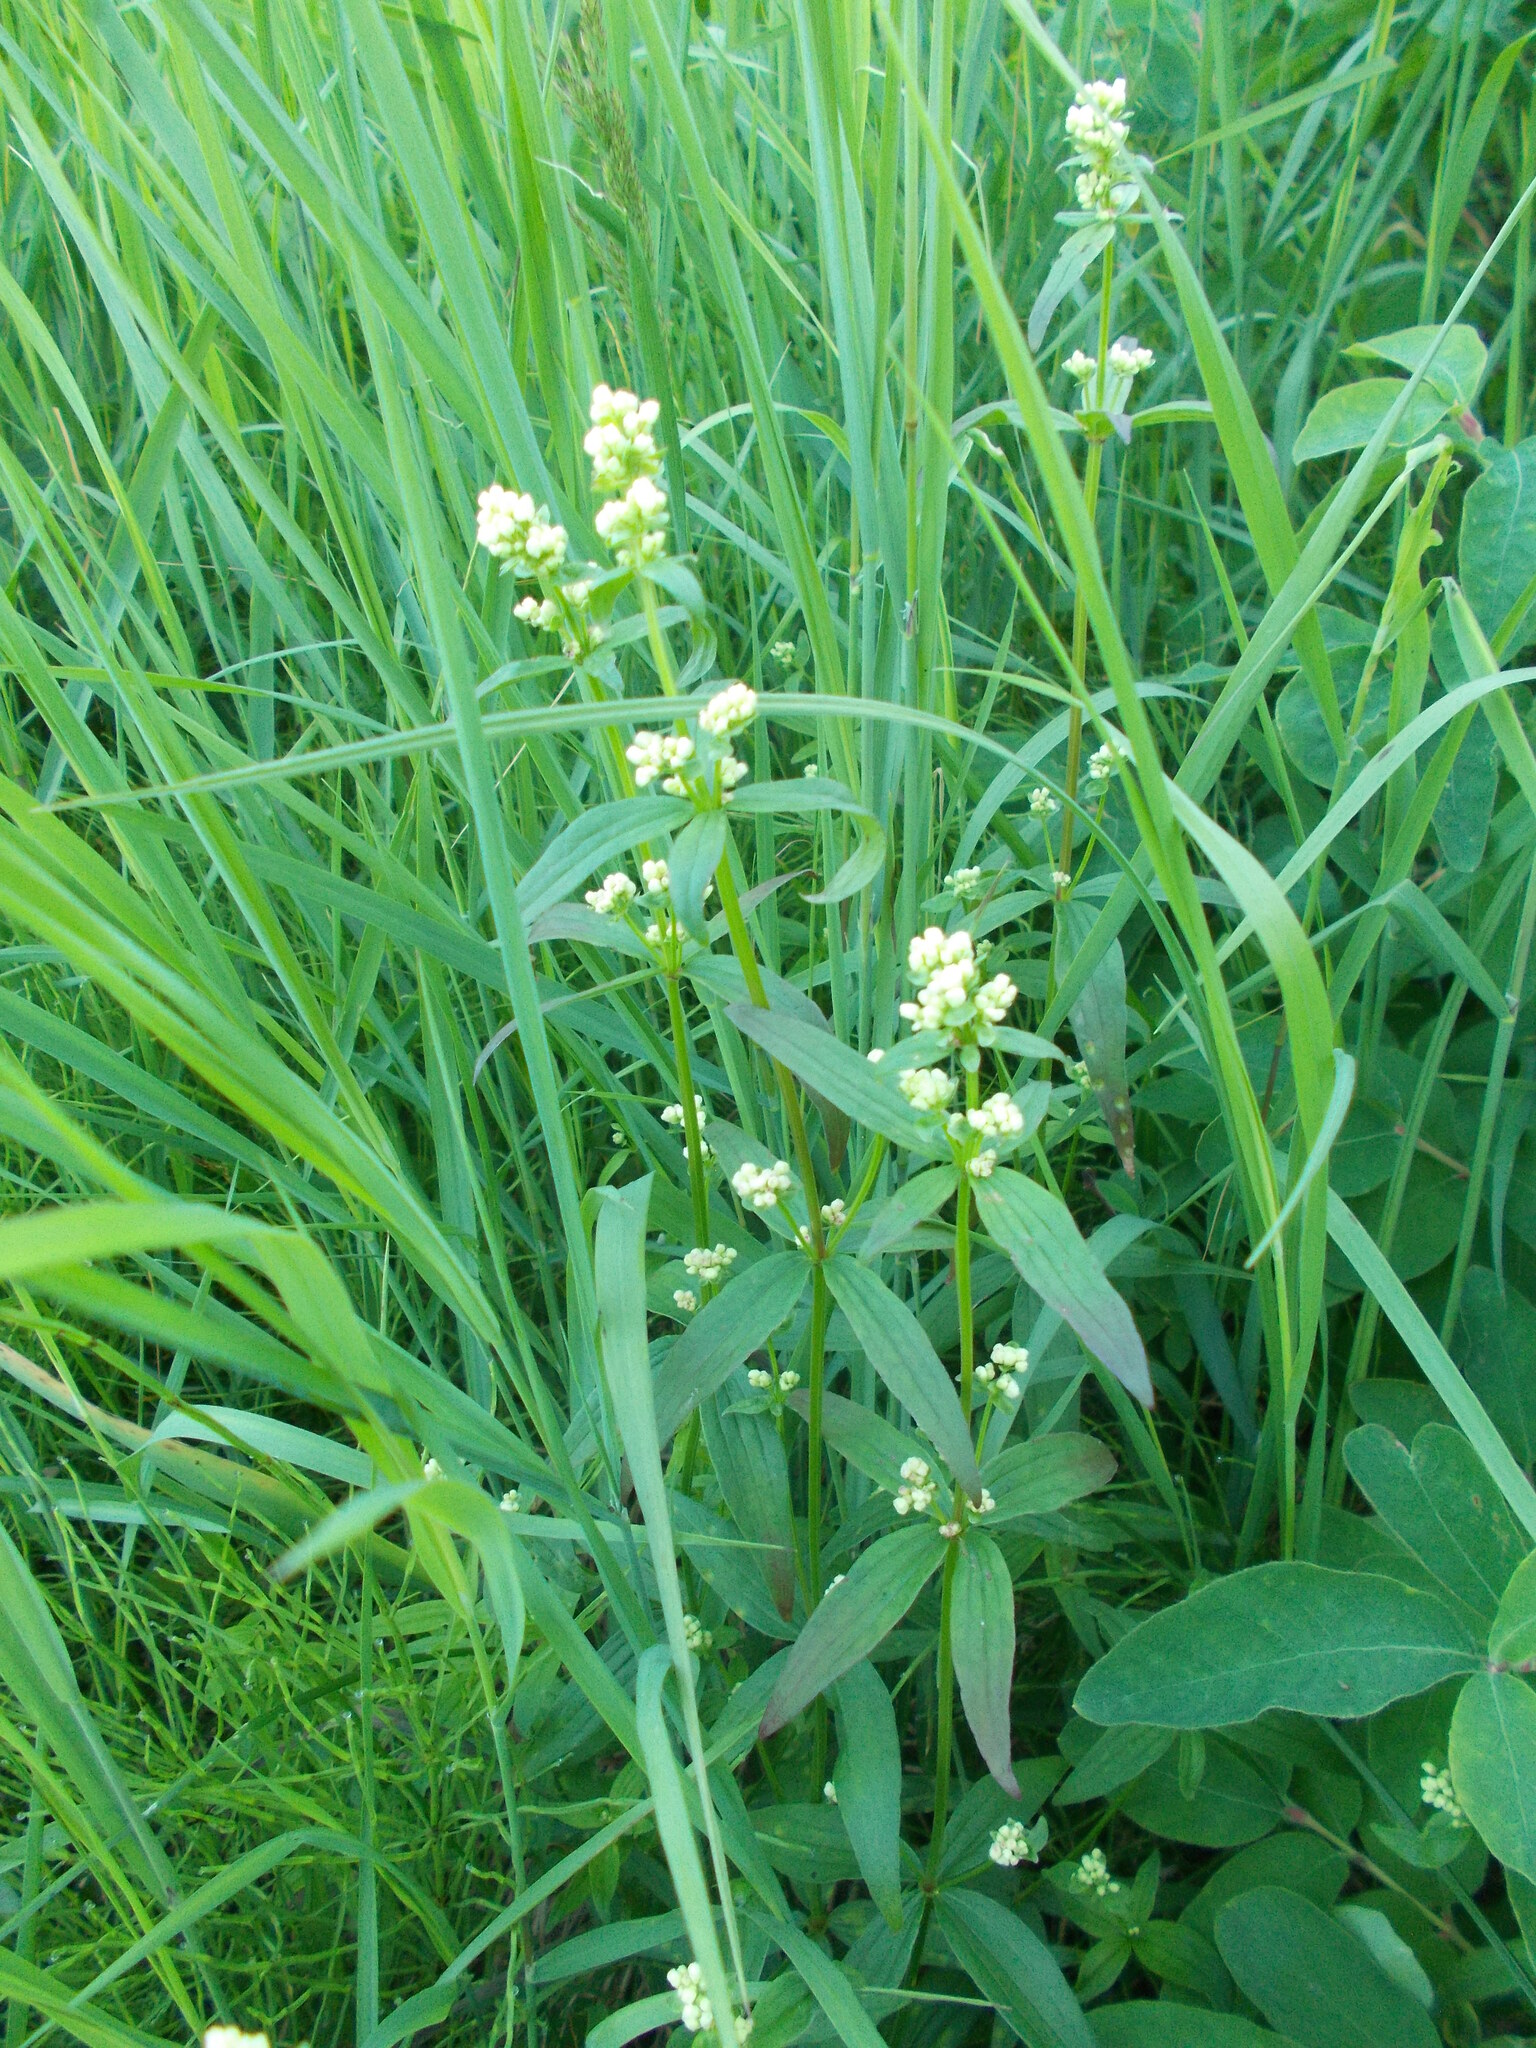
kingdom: Plantae
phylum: Tracheophyta
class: Magnoliopsida
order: Gentianales
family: Rubiaceae
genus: Galium
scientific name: Galium boreale
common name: Northern bedstraw
